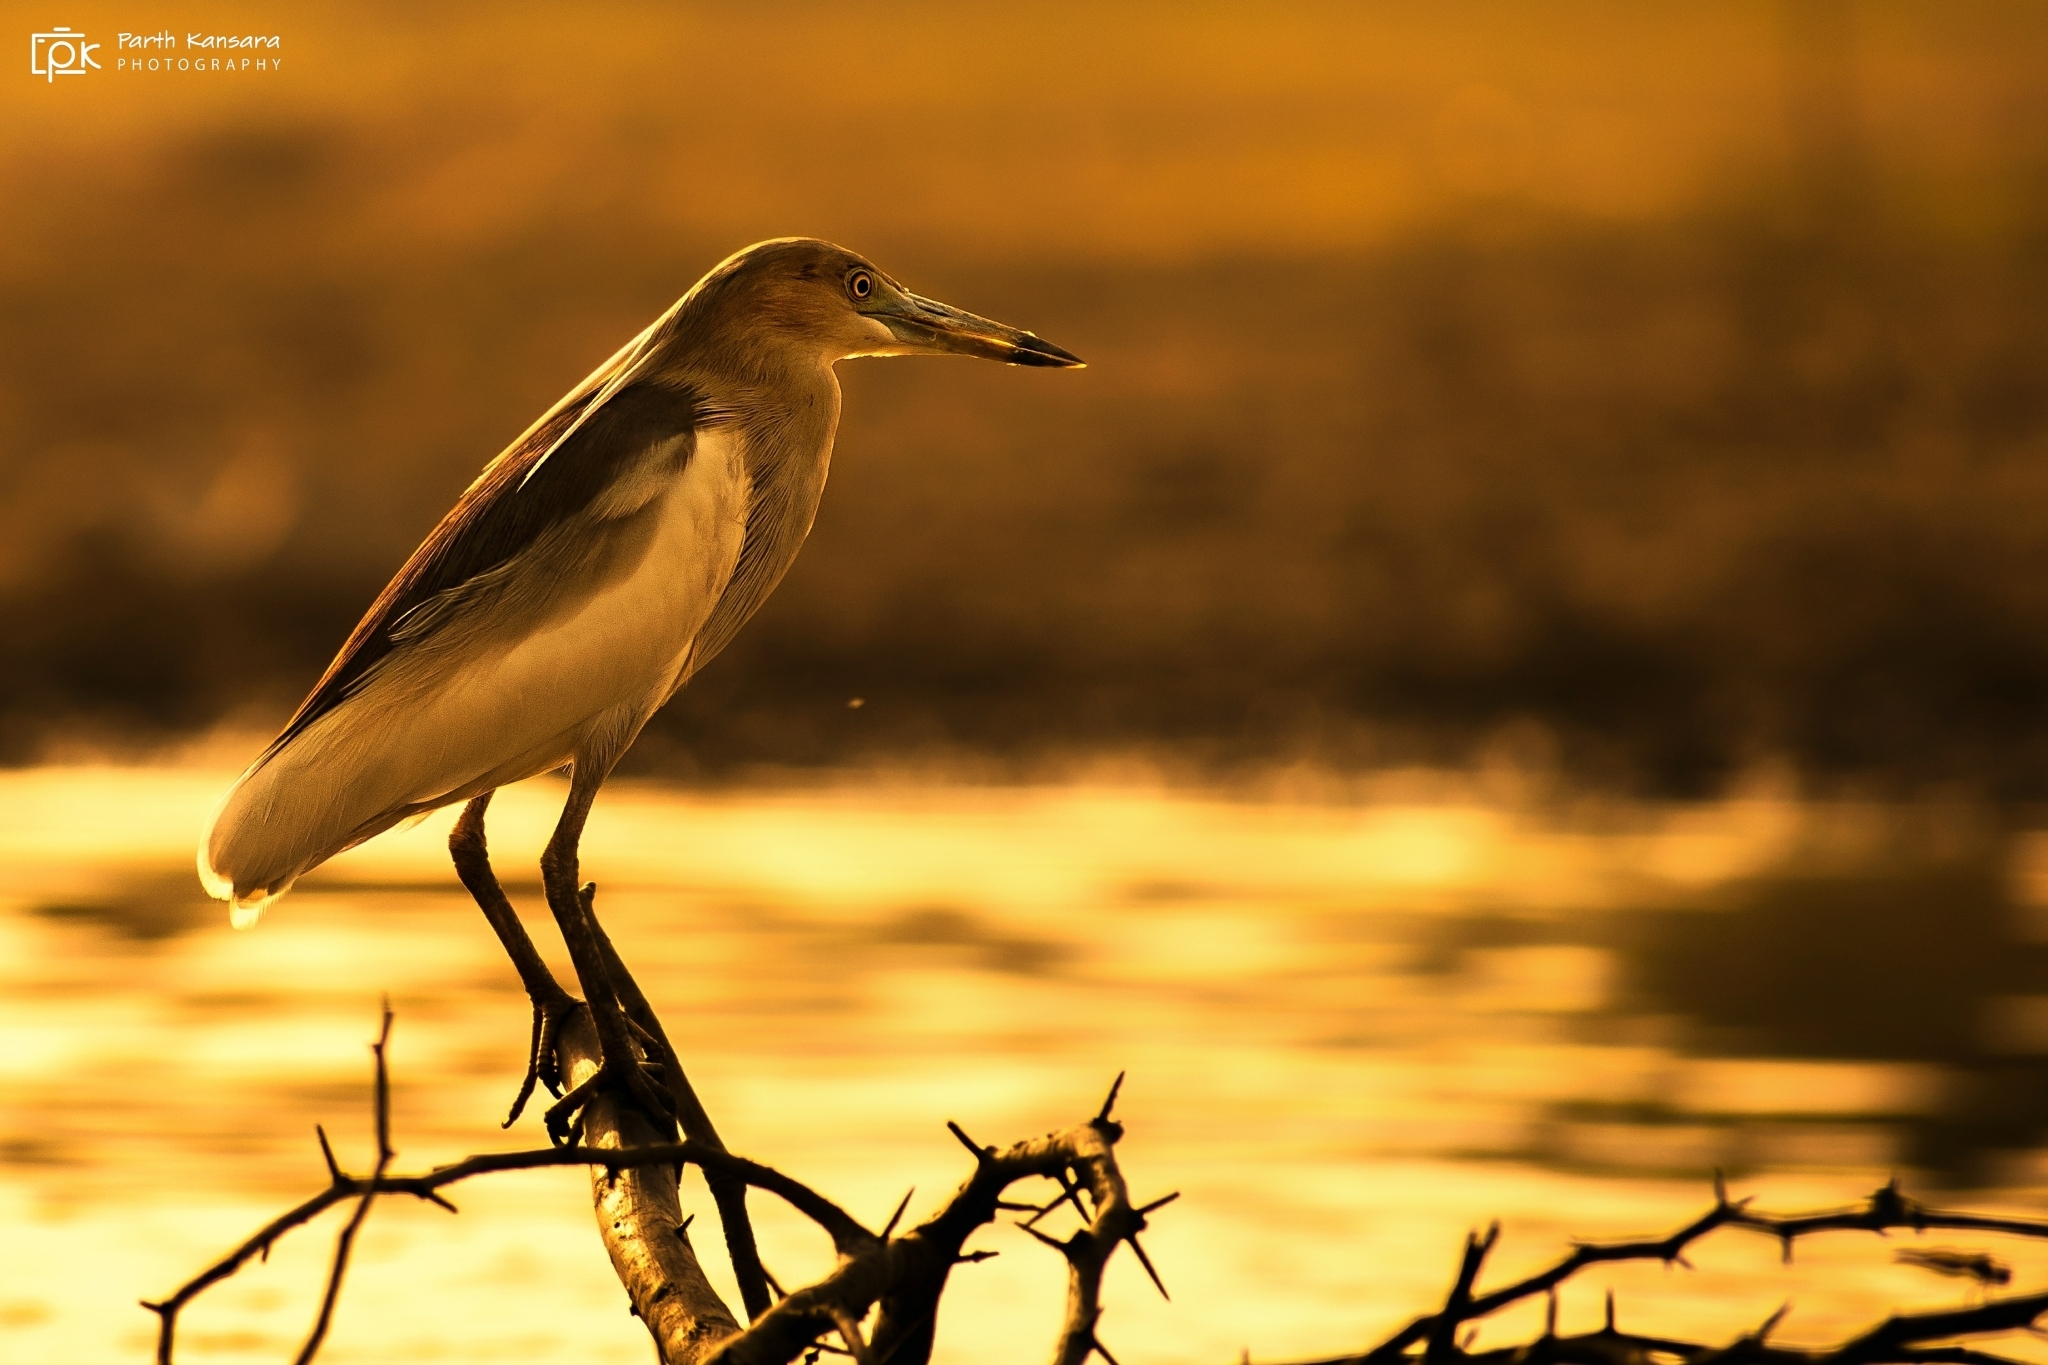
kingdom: Animalia
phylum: Chordata
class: Aves
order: Pelecaniformes
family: Ardeidae
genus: Ardeola
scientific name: Ardeola grayii
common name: Indian pond heron
